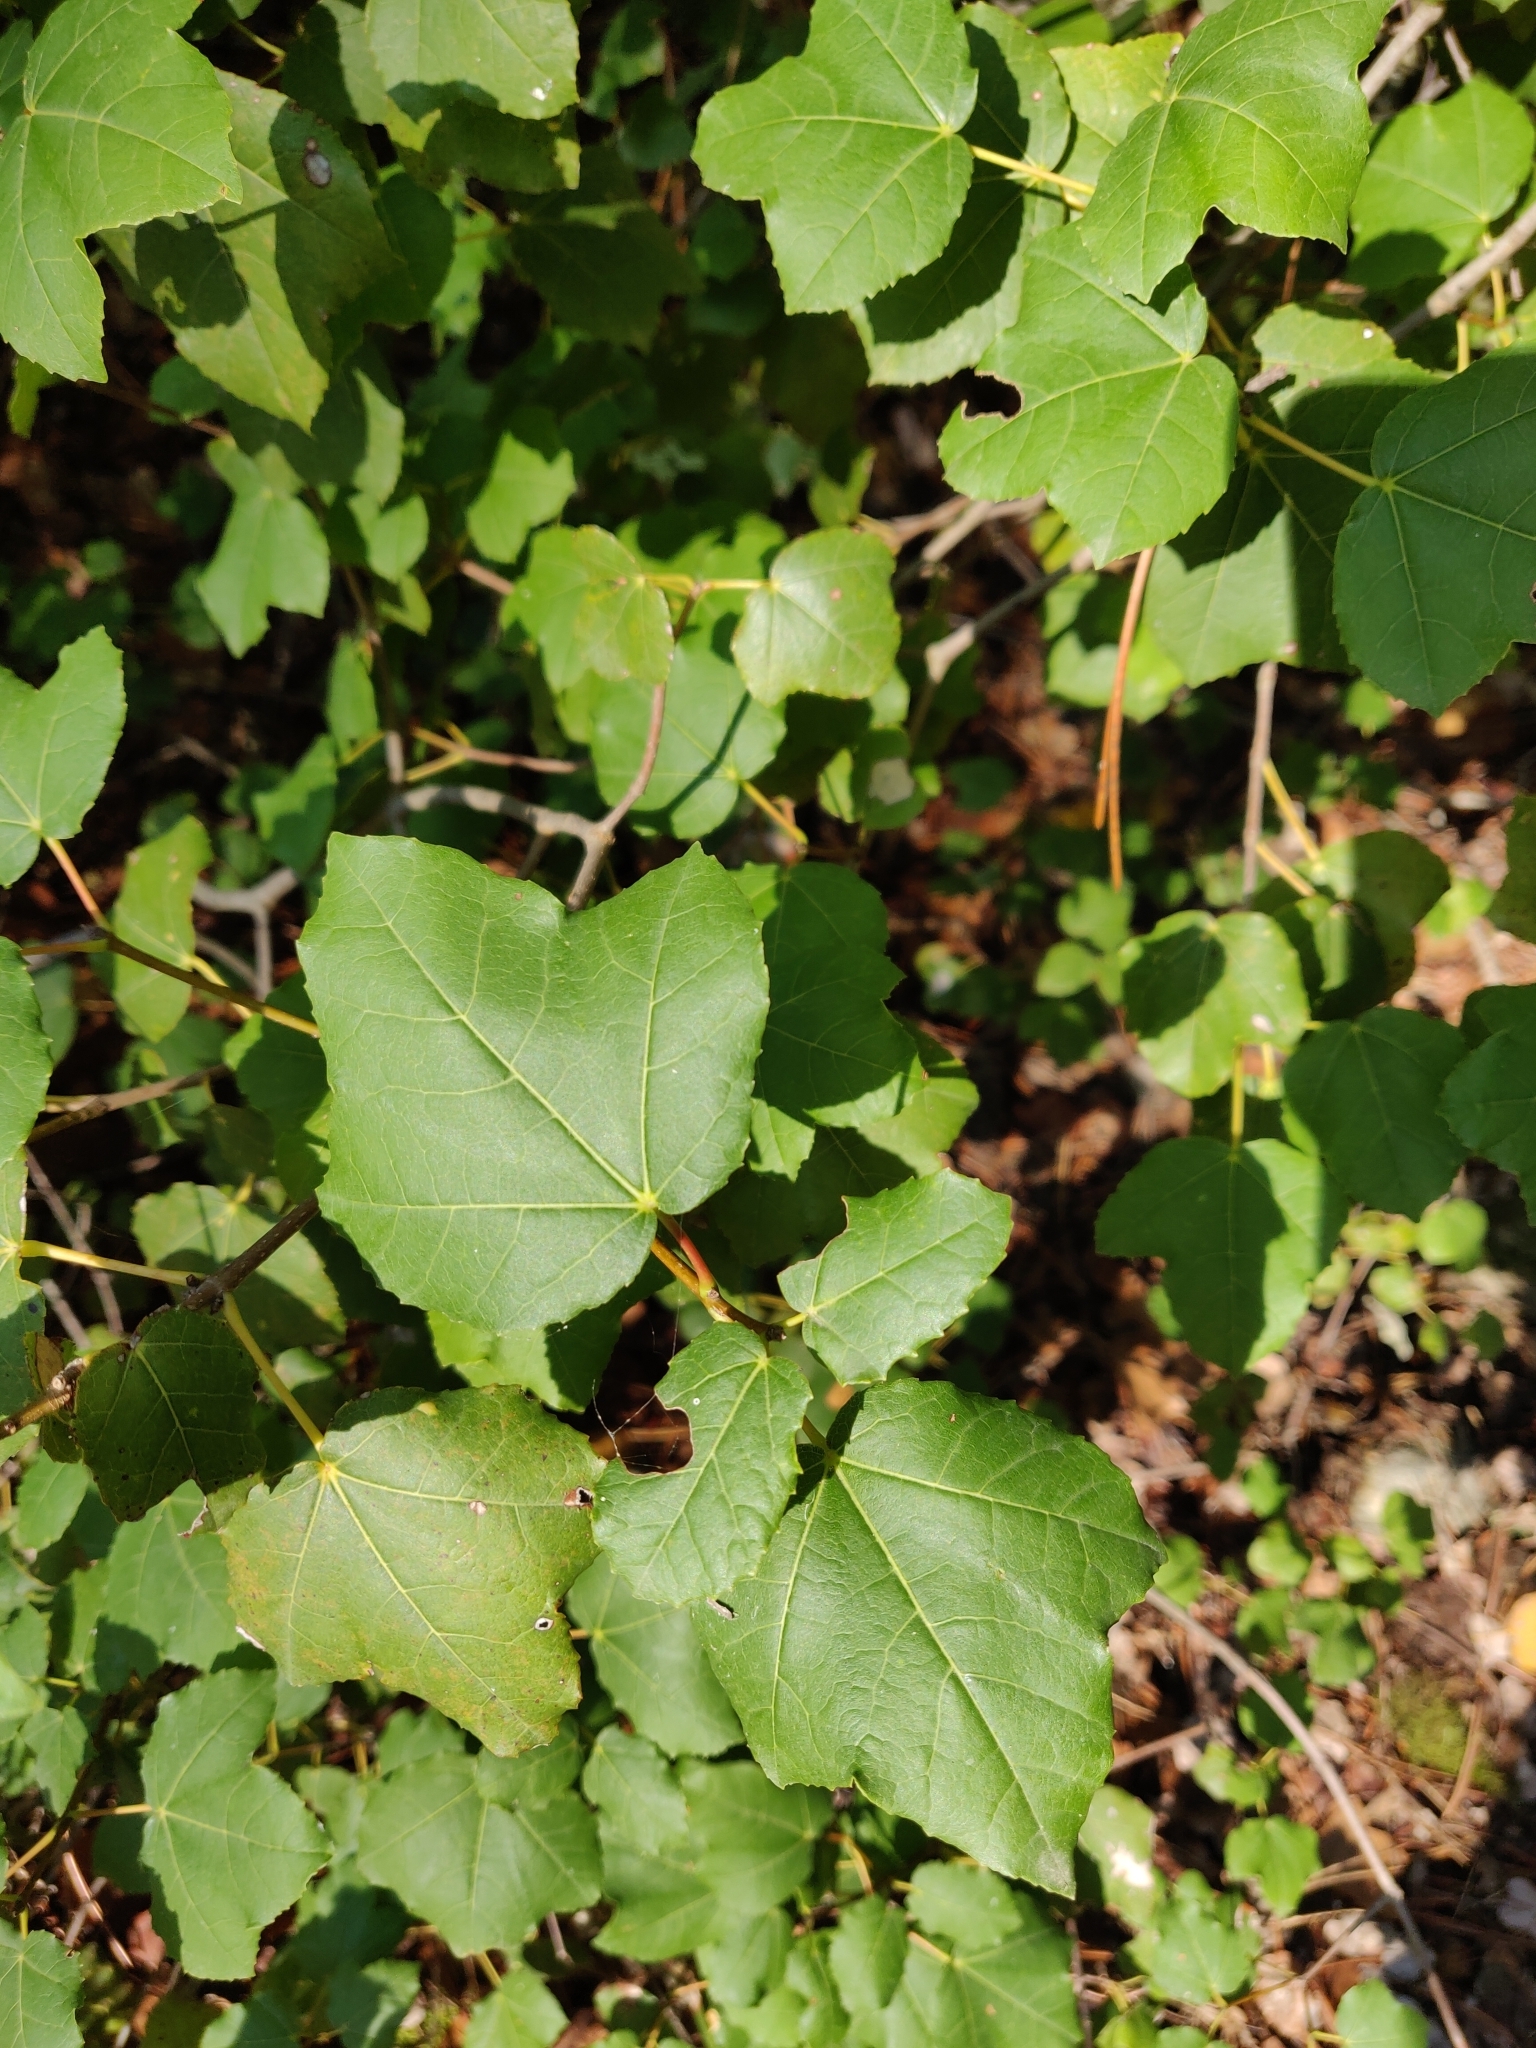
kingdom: Plantae
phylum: Tracheophyta
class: Magnoliopsida
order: Sapindales
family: Sapindaceae
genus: Acer
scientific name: Acer obtusifolium
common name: Cyprus maple
